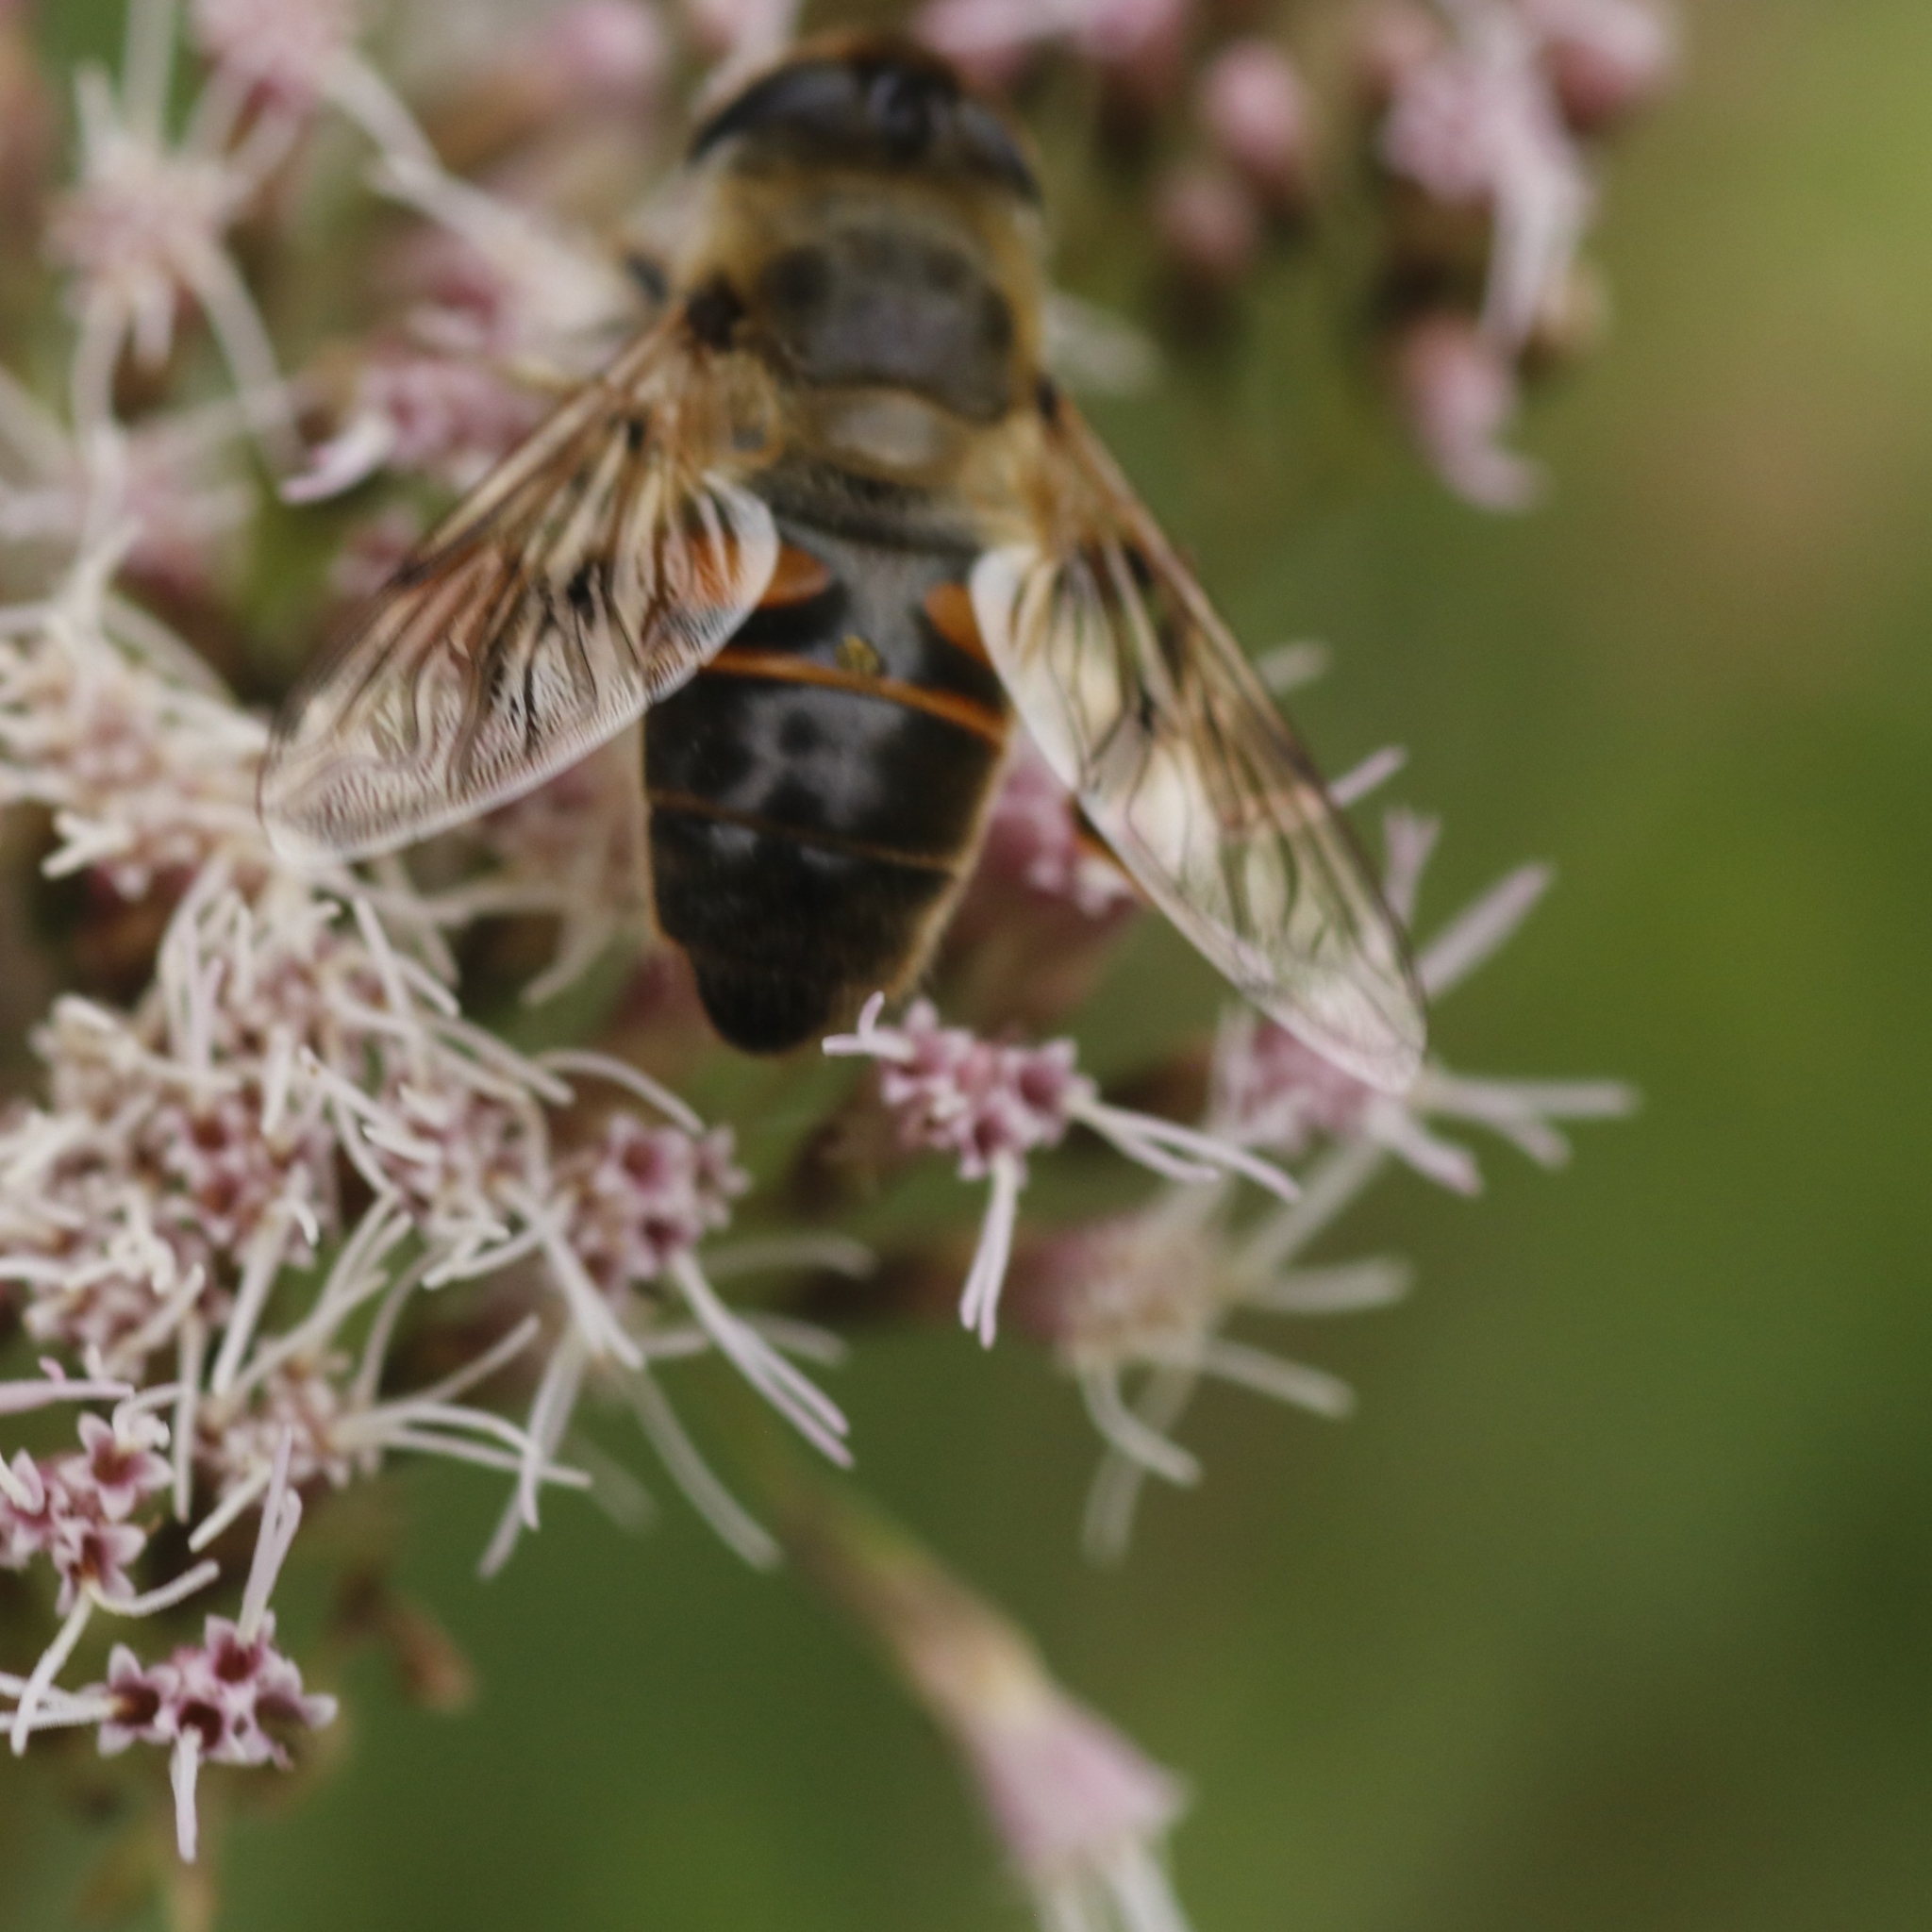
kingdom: Animalia
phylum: Arthropoda
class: Insecta
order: Diptera
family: Syrphidae
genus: Eristalis
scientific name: Eristalis tenax
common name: Drone fly
